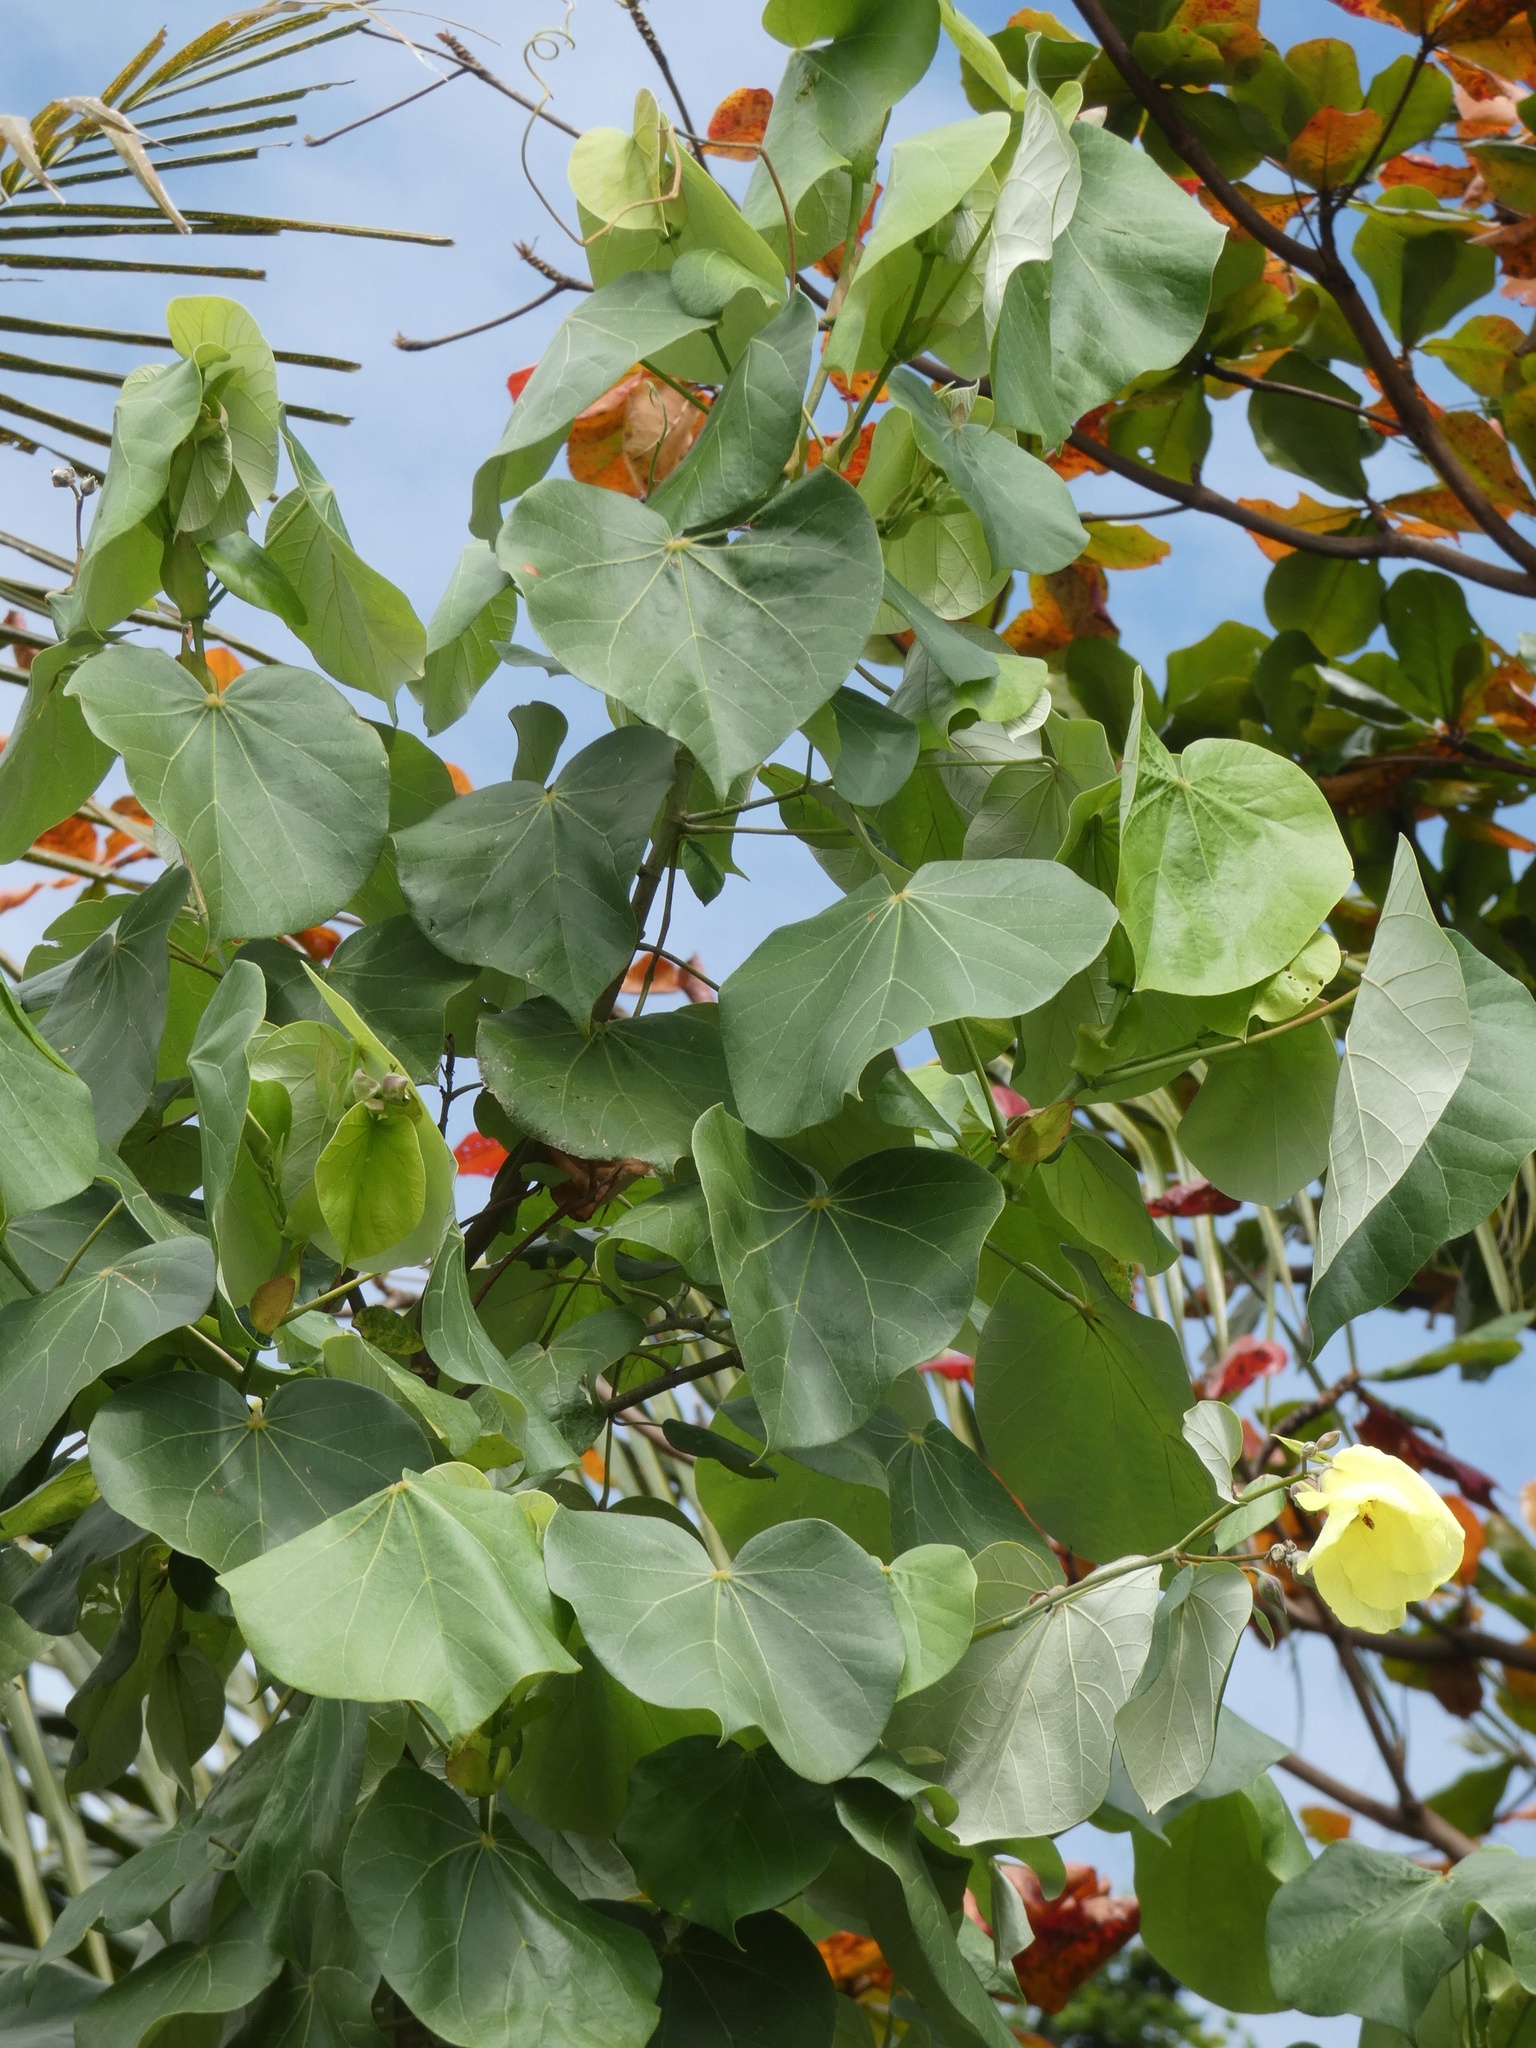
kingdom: Plantae
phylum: Tracheophyta
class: Magnoliopsida
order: Malvales
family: Malvaceae
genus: Talipariti
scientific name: Talipariti tiliaceum
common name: Sea hibiscus
